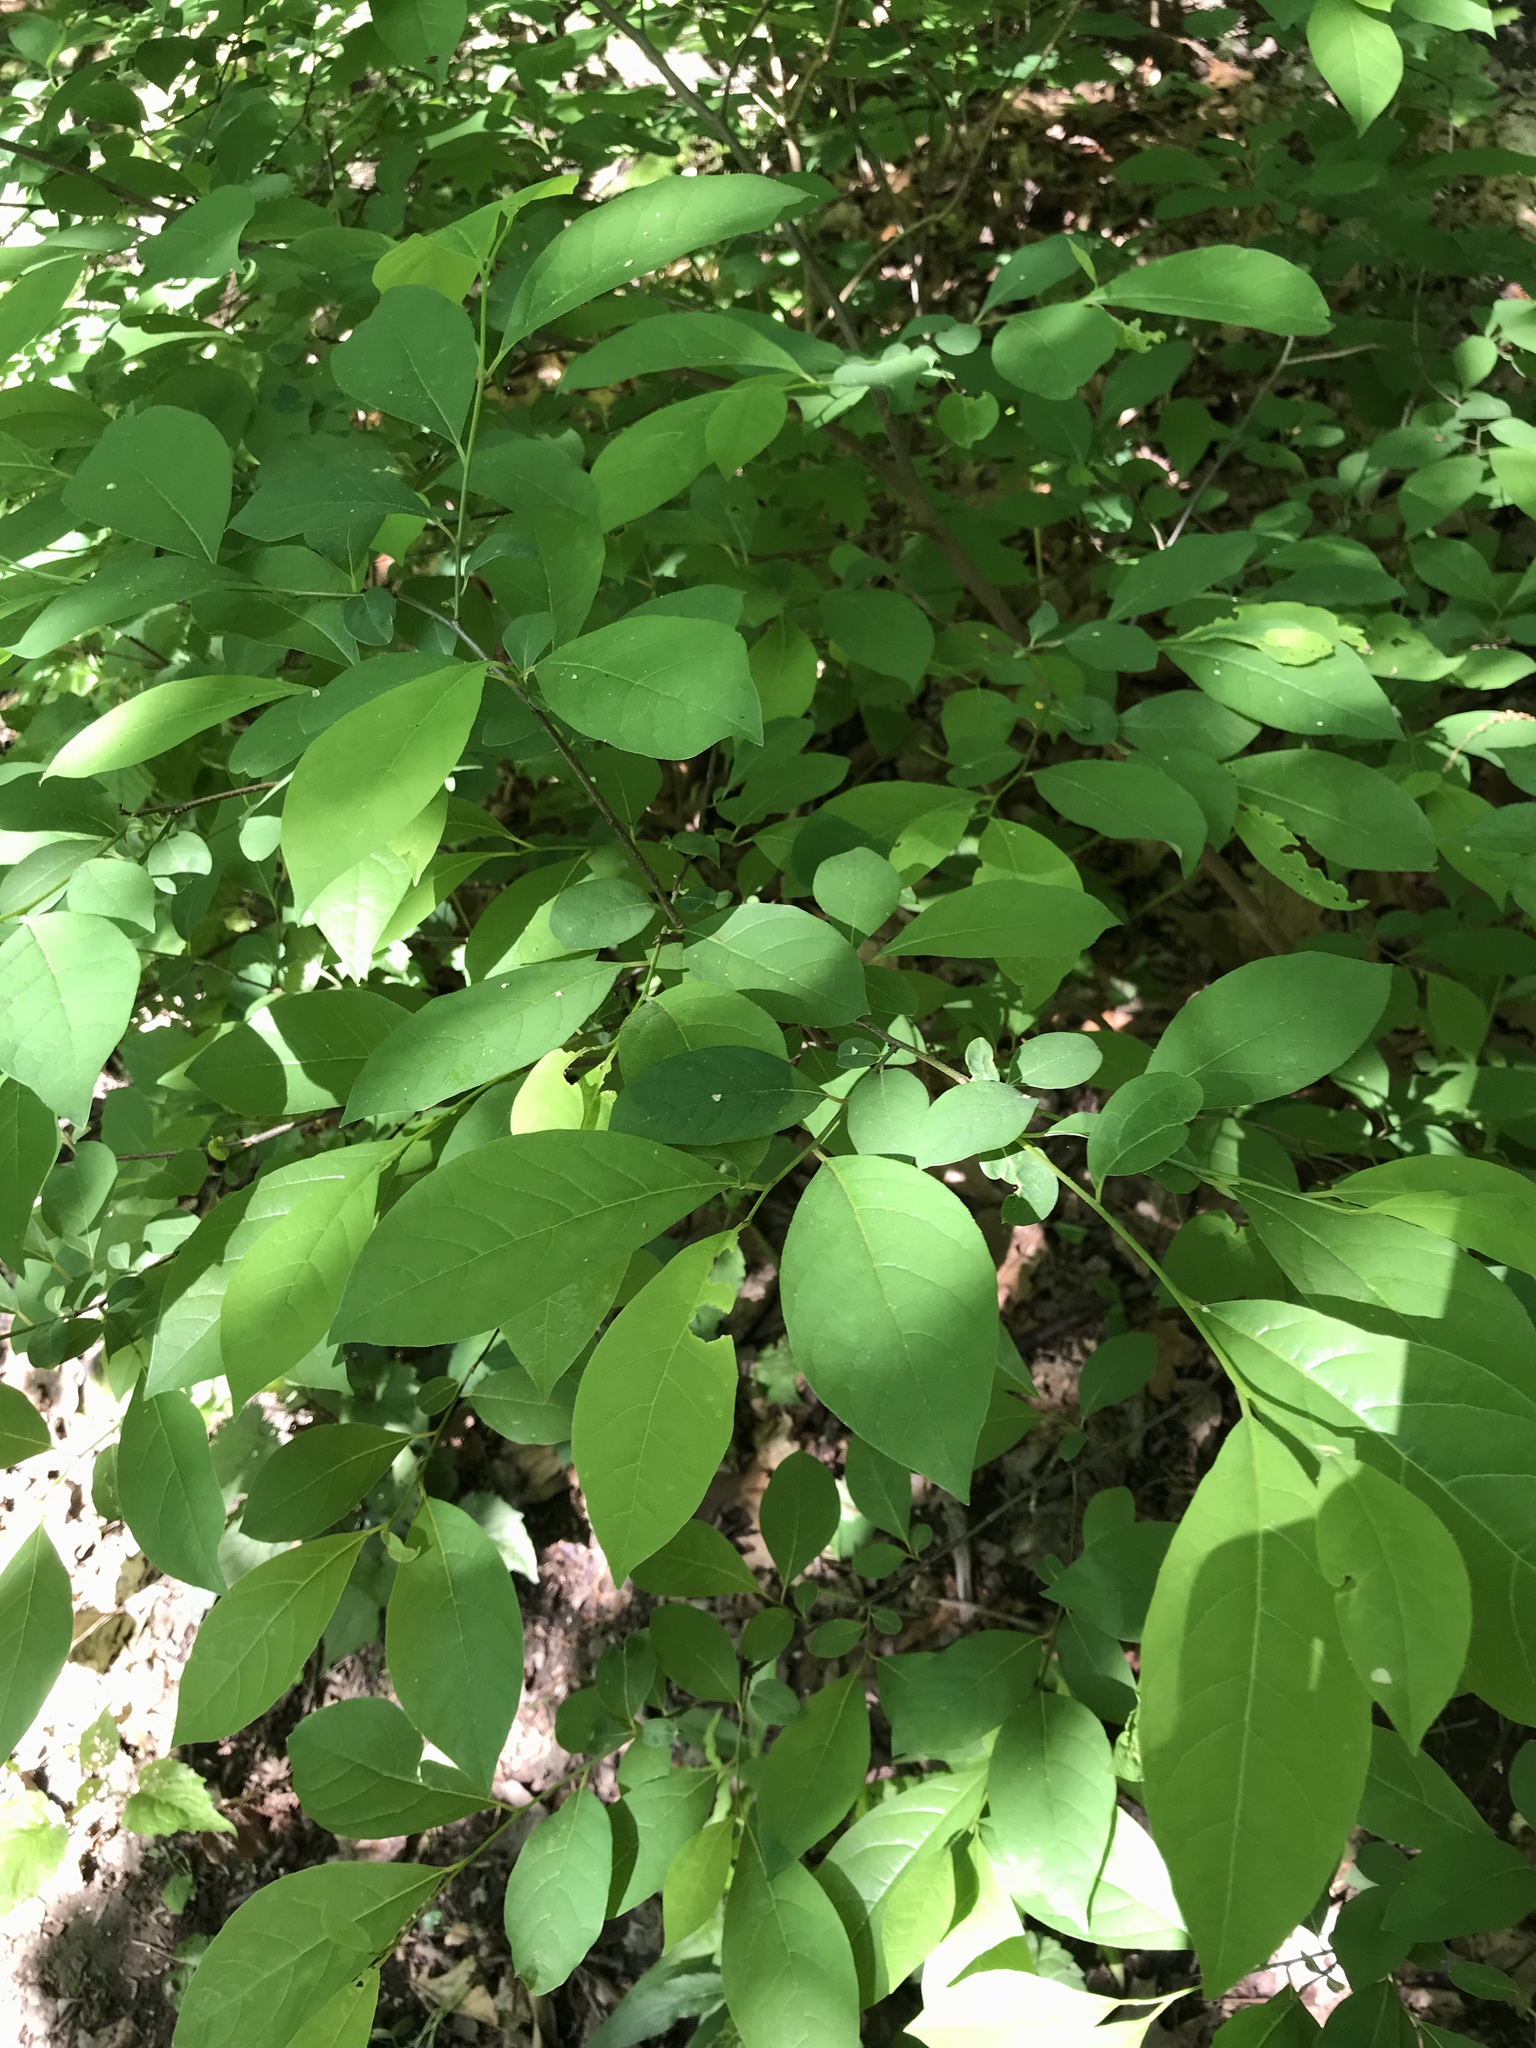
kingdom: Plantae
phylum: Tracheophyta
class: Magnoliopsida
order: Laurales
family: Lauraceae
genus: Lindera
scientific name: Lindera benzoin
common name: Spicebush
